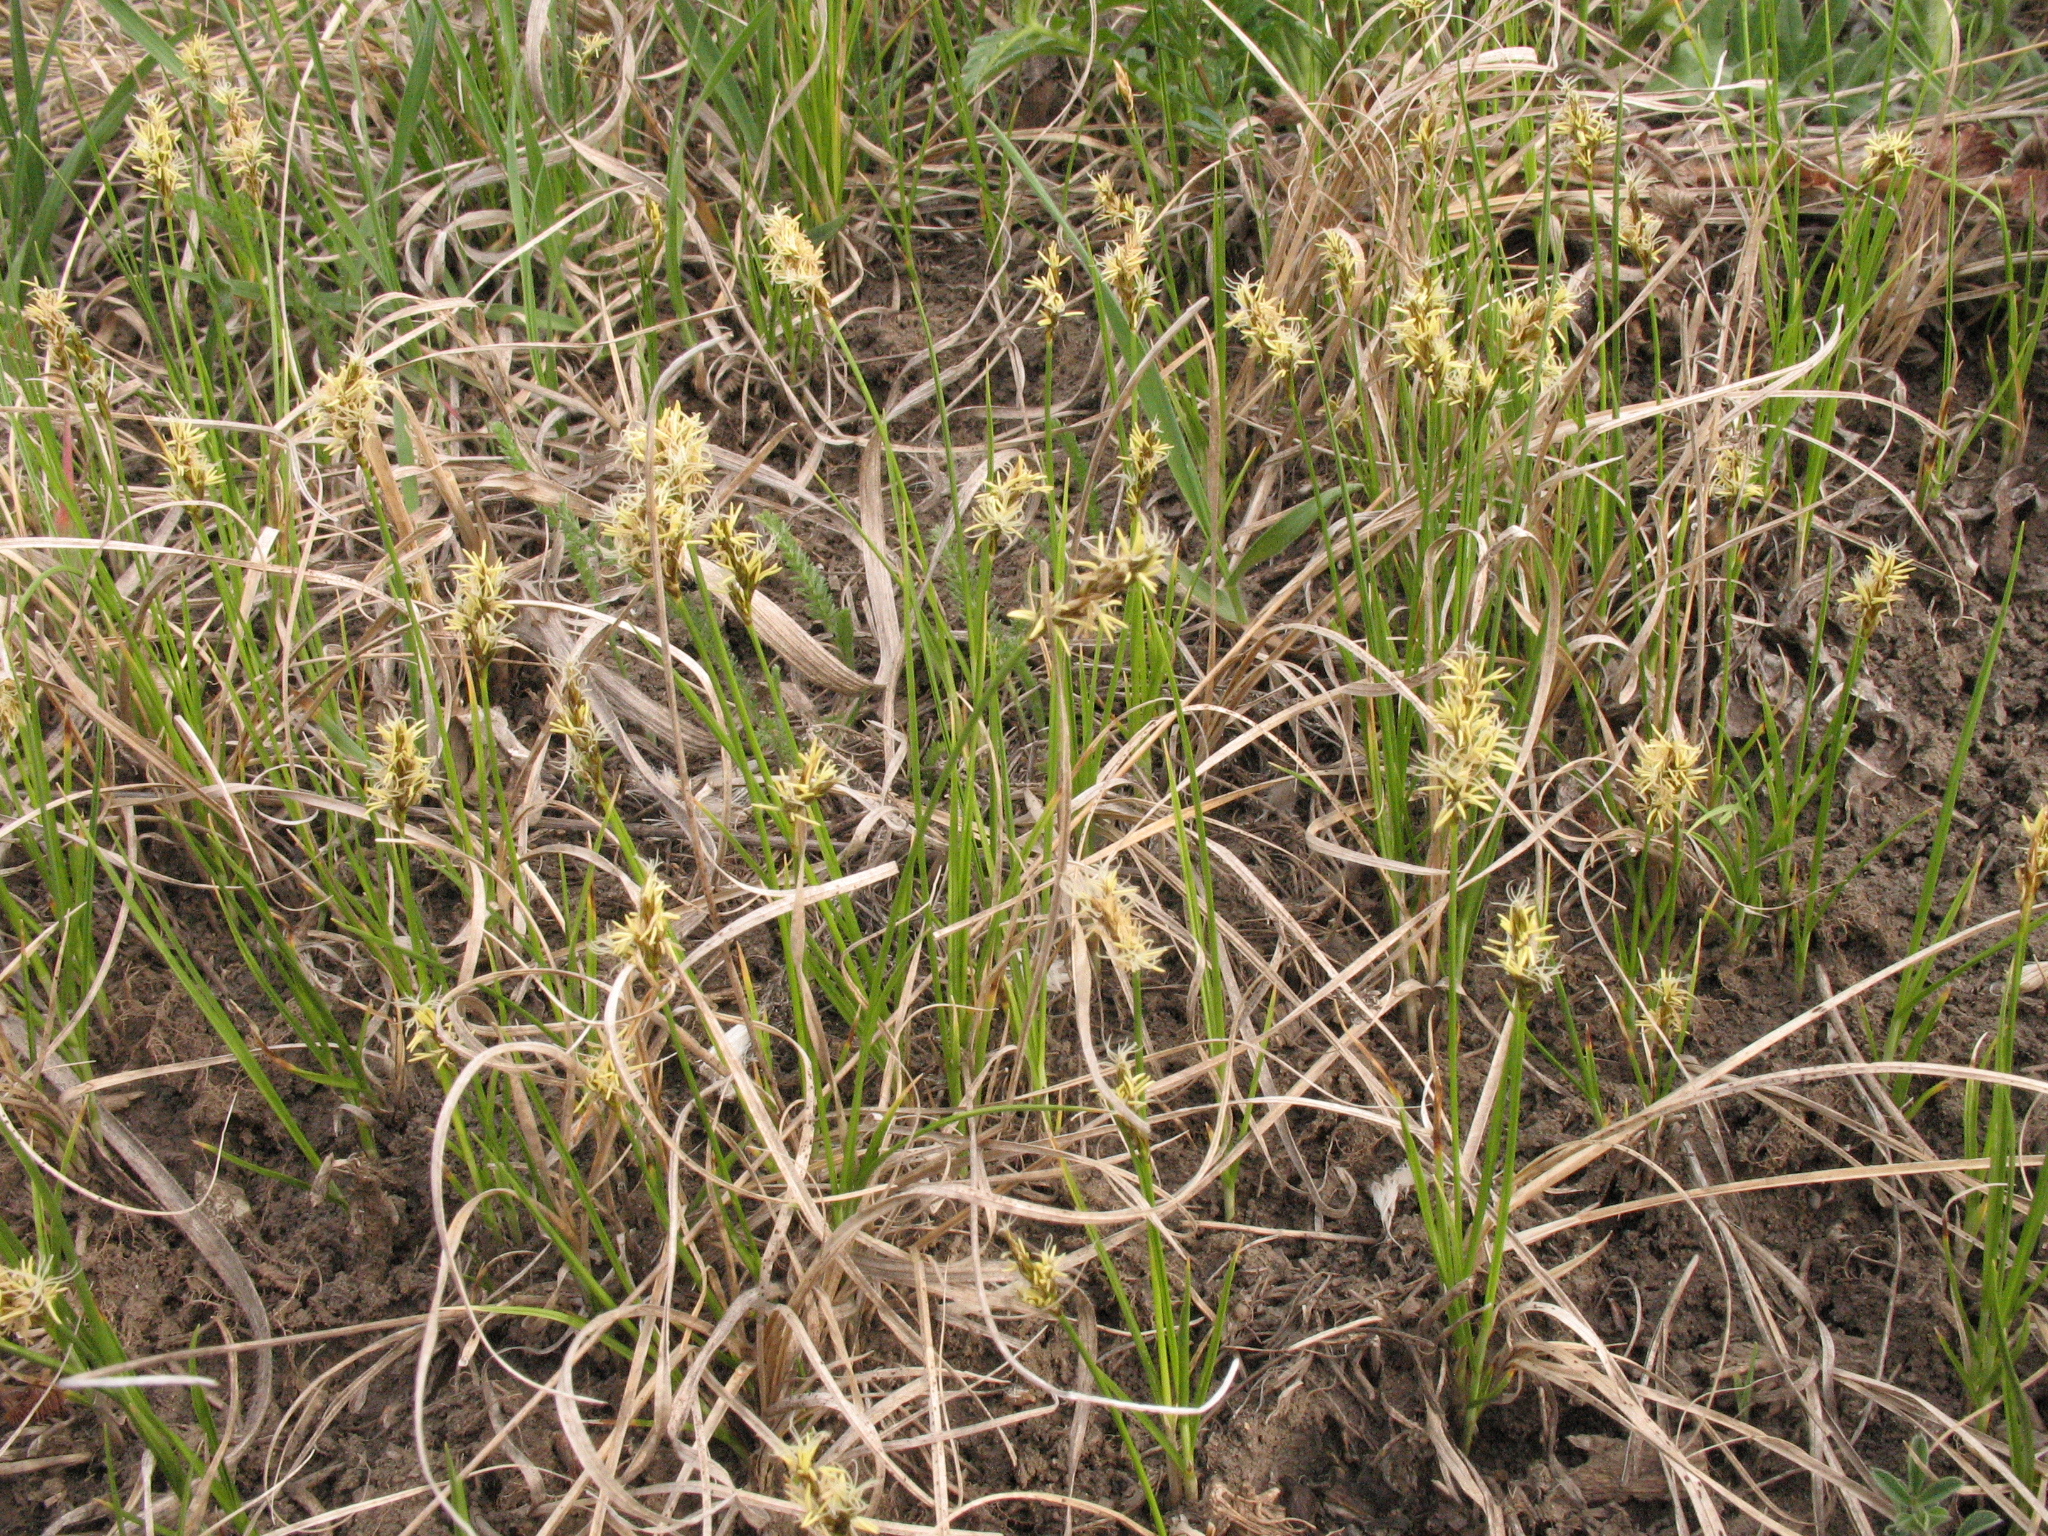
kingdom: Plantae
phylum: Tracheophyta
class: Liliopsida
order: Poales
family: Cyperaceae
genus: Carex
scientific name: Carex praecox
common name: Early sedge
